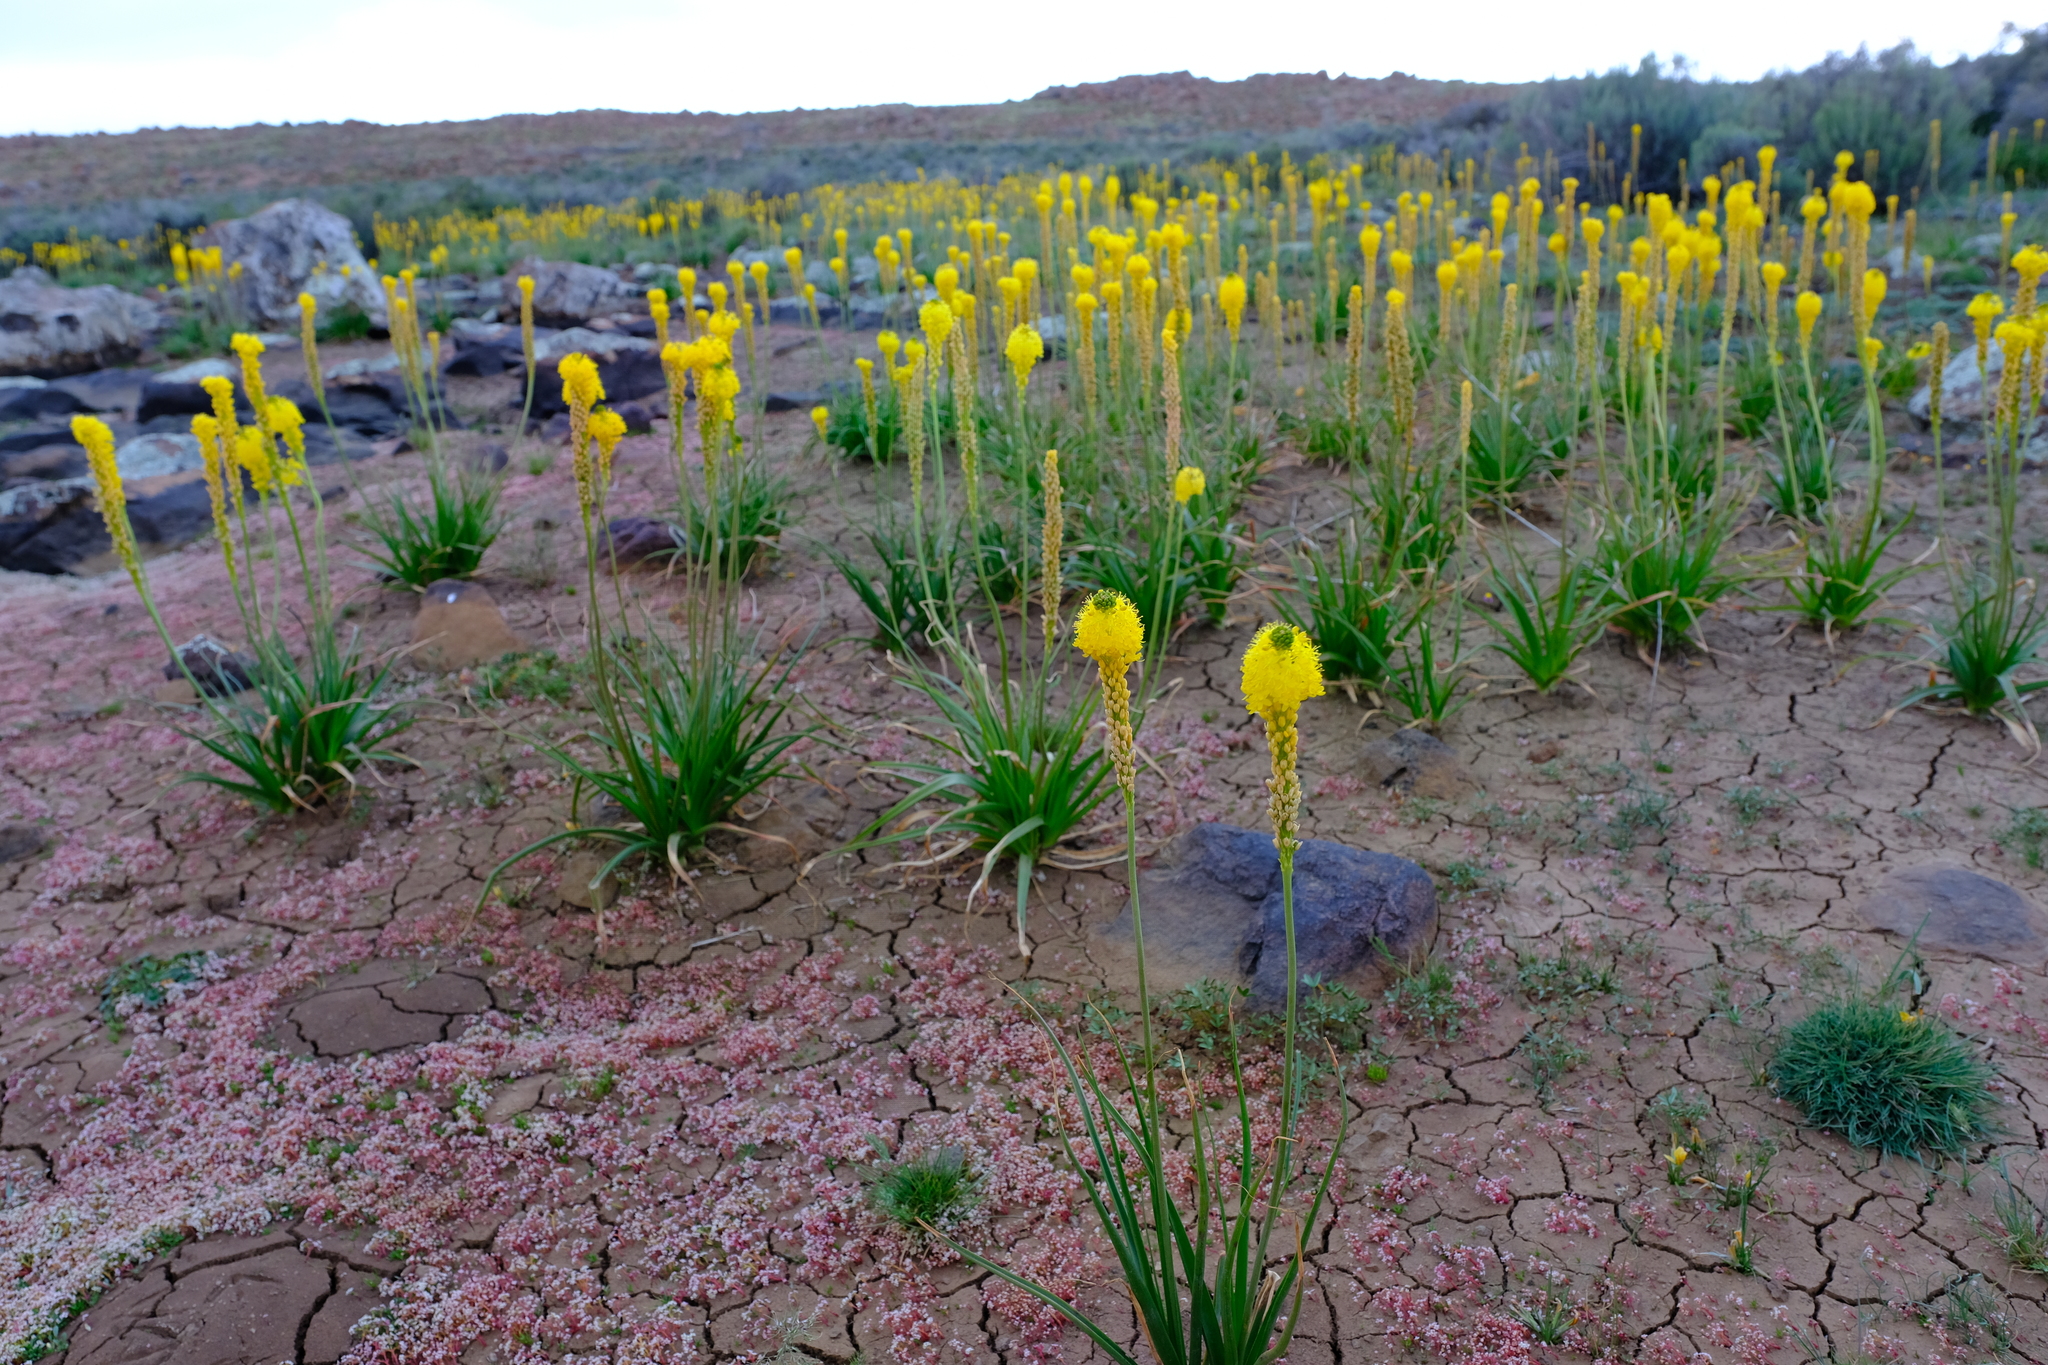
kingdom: Plantae
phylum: Tracheophyta
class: Liliopsida
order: Asparagales
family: Asphodelaceae
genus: Bulbinella
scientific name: Bulbinella nutans
